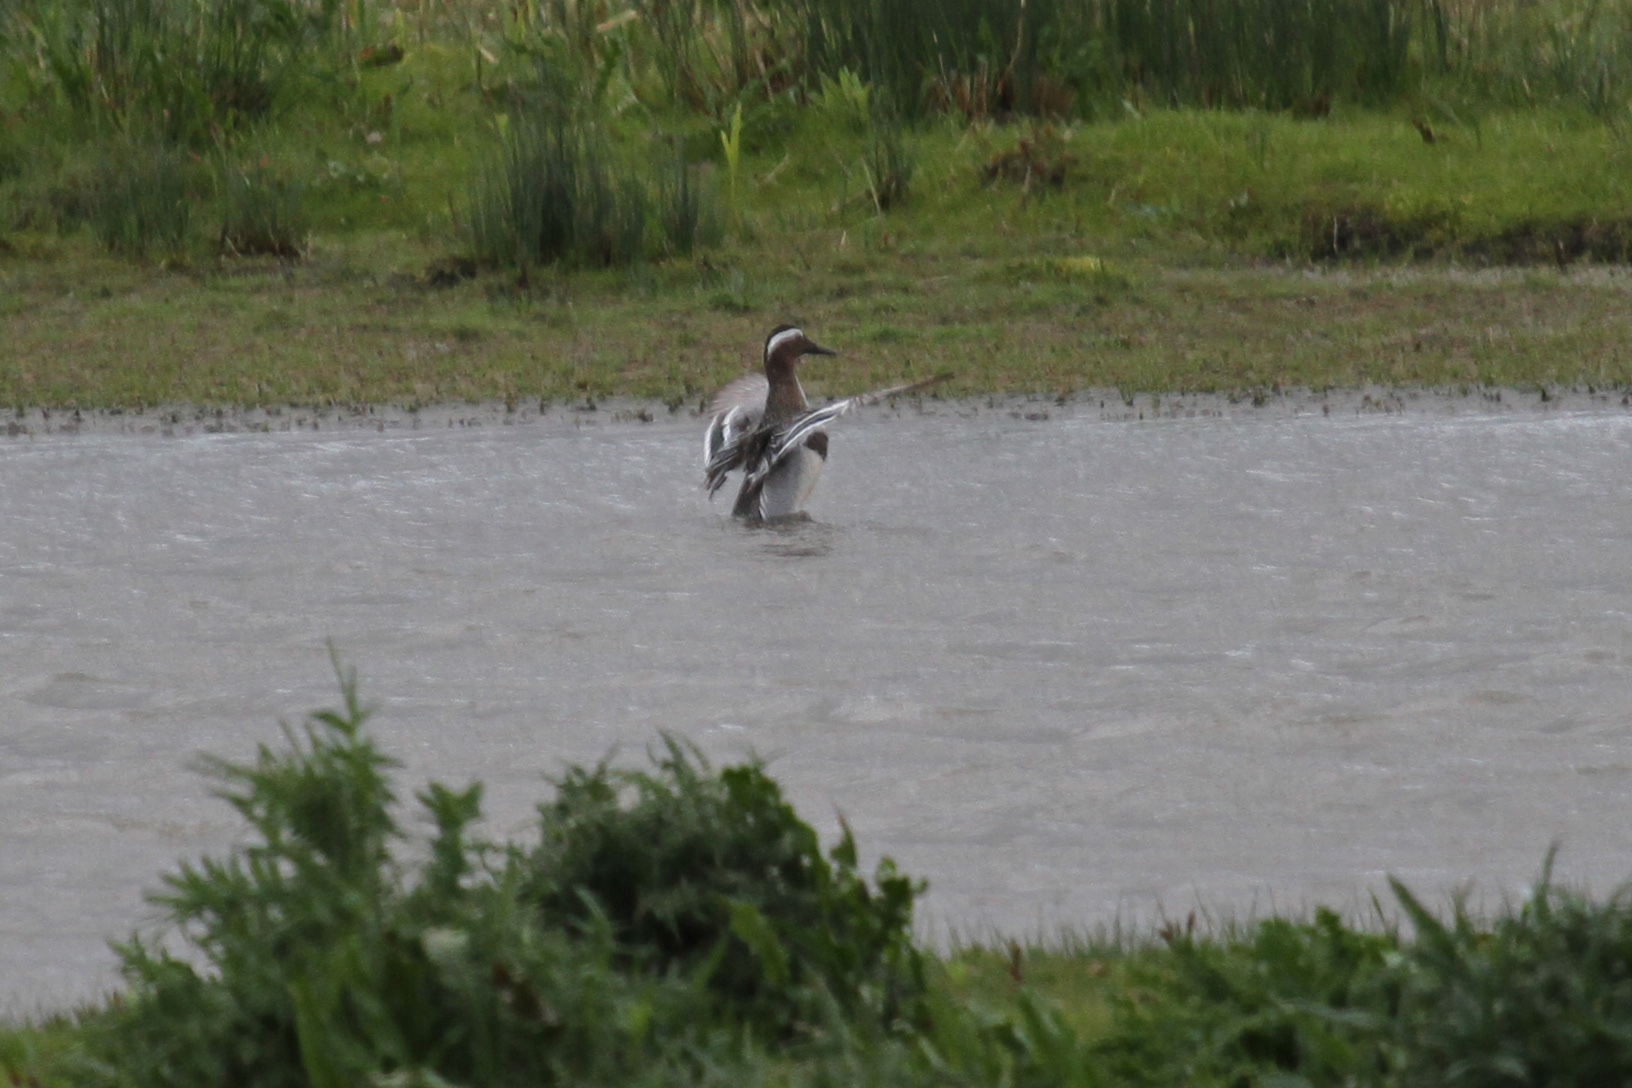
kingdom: Animalia
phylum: Chordata
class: Aves
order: Anseriformes
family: Anatidae
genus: Spatula
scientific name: Spatula querquedula
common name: Garganey
